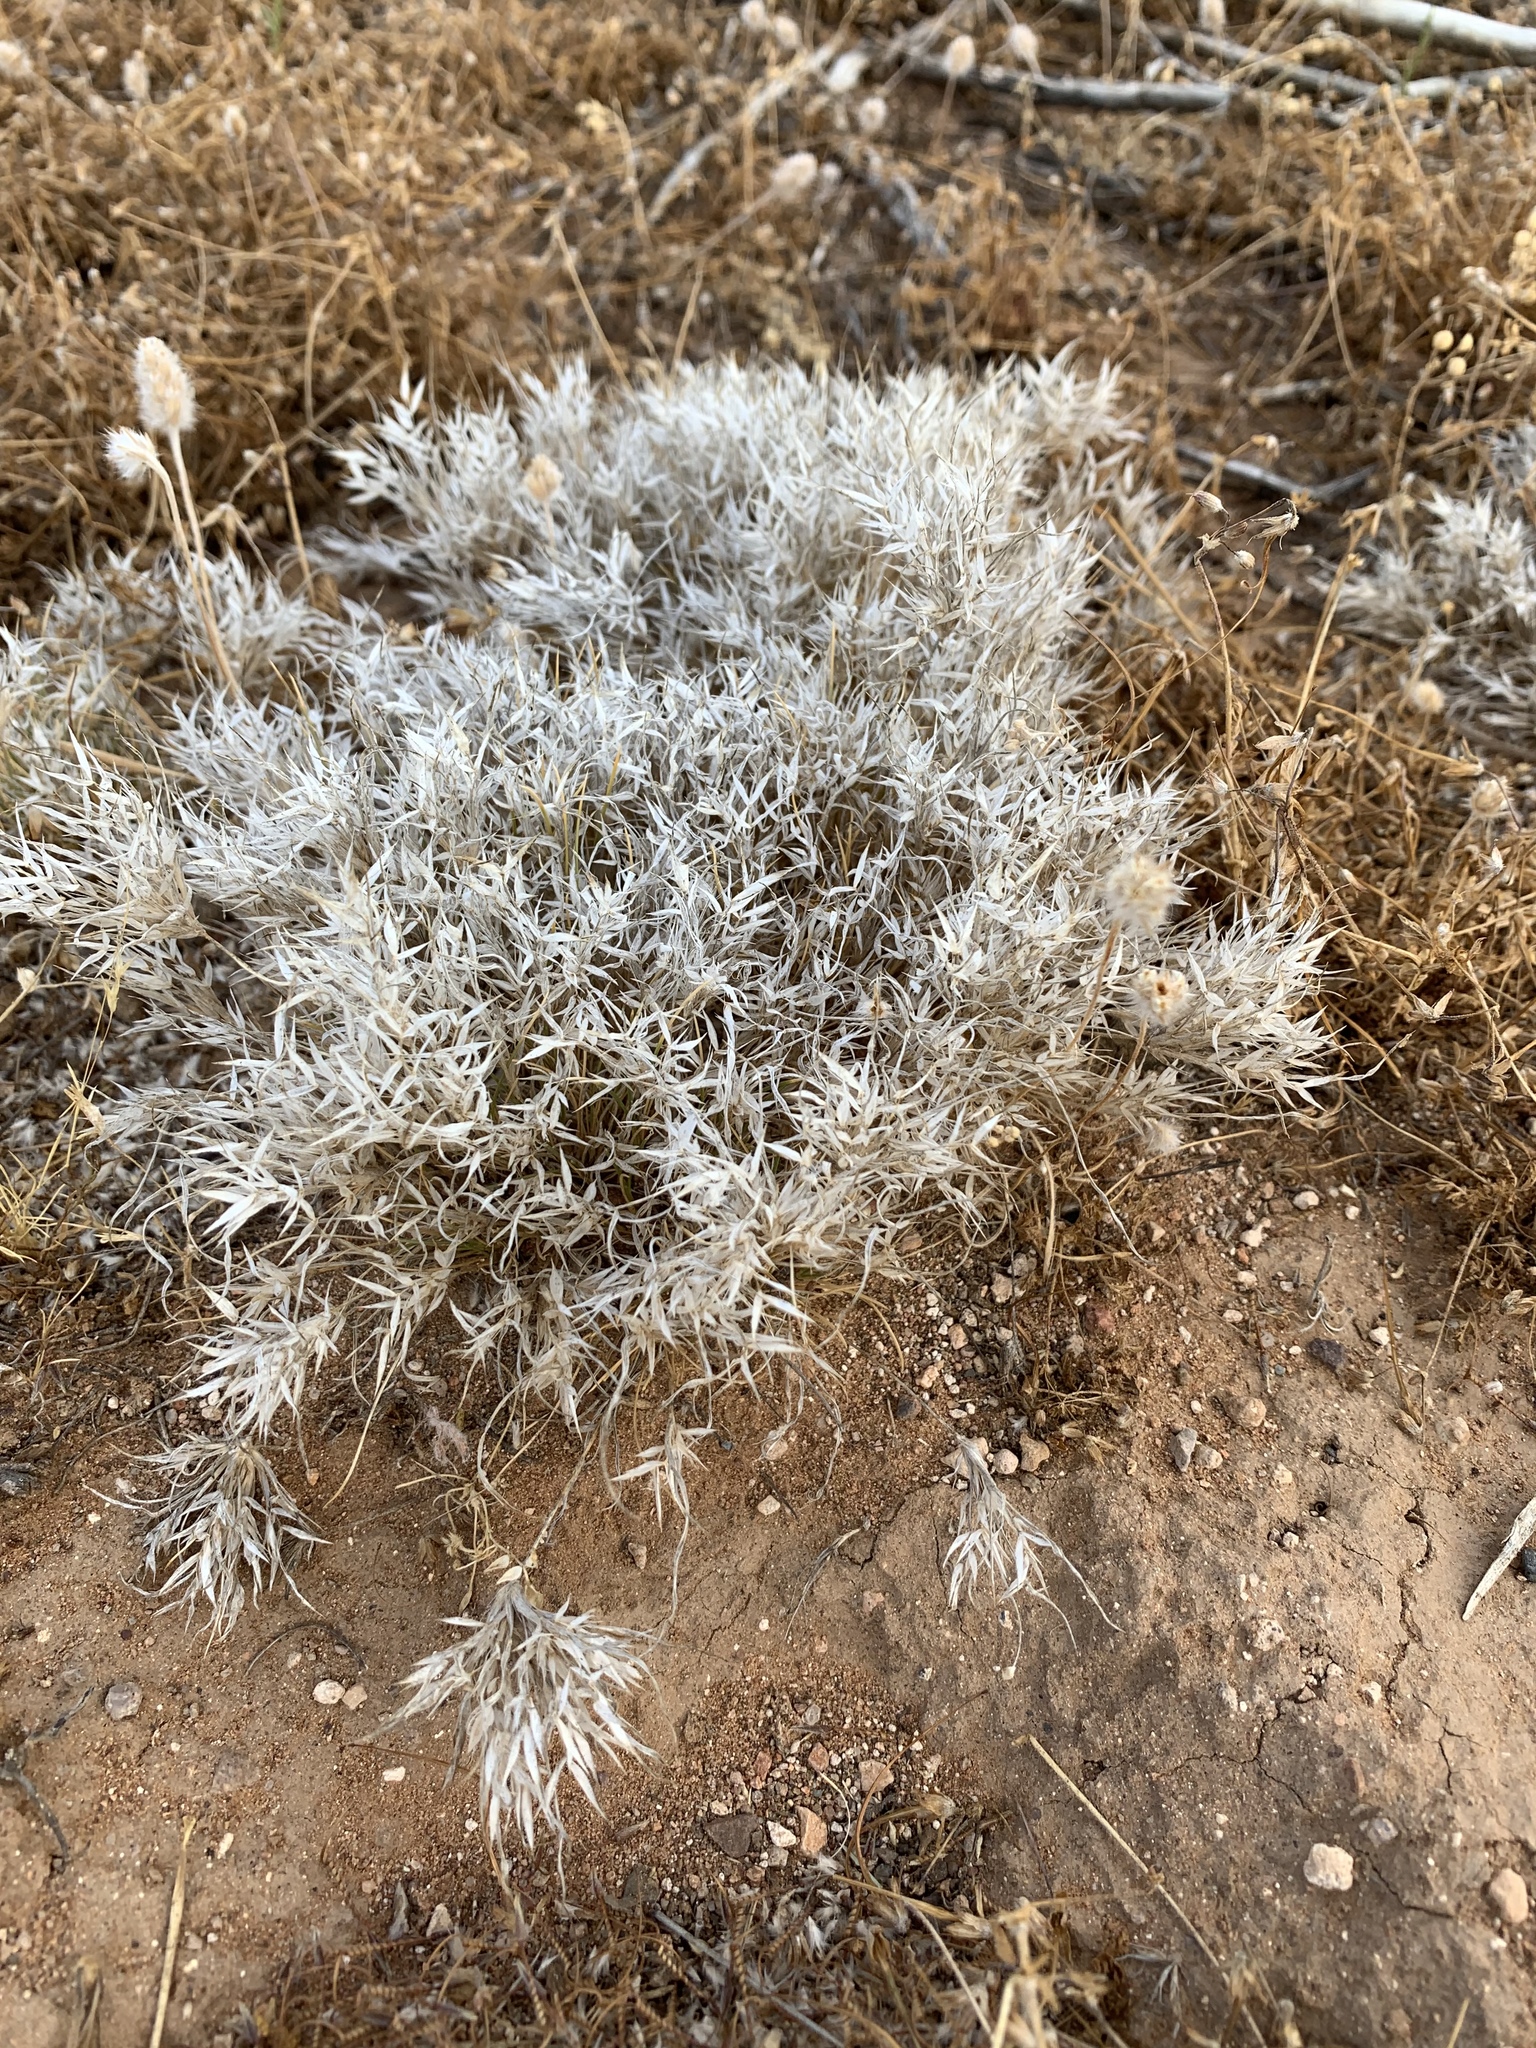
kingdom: Plantae
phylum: Tracheophyta
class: Liliopsida
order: Poales
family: Poaceae
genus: Dasyochloa
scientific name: Dasyochloa pulchella
